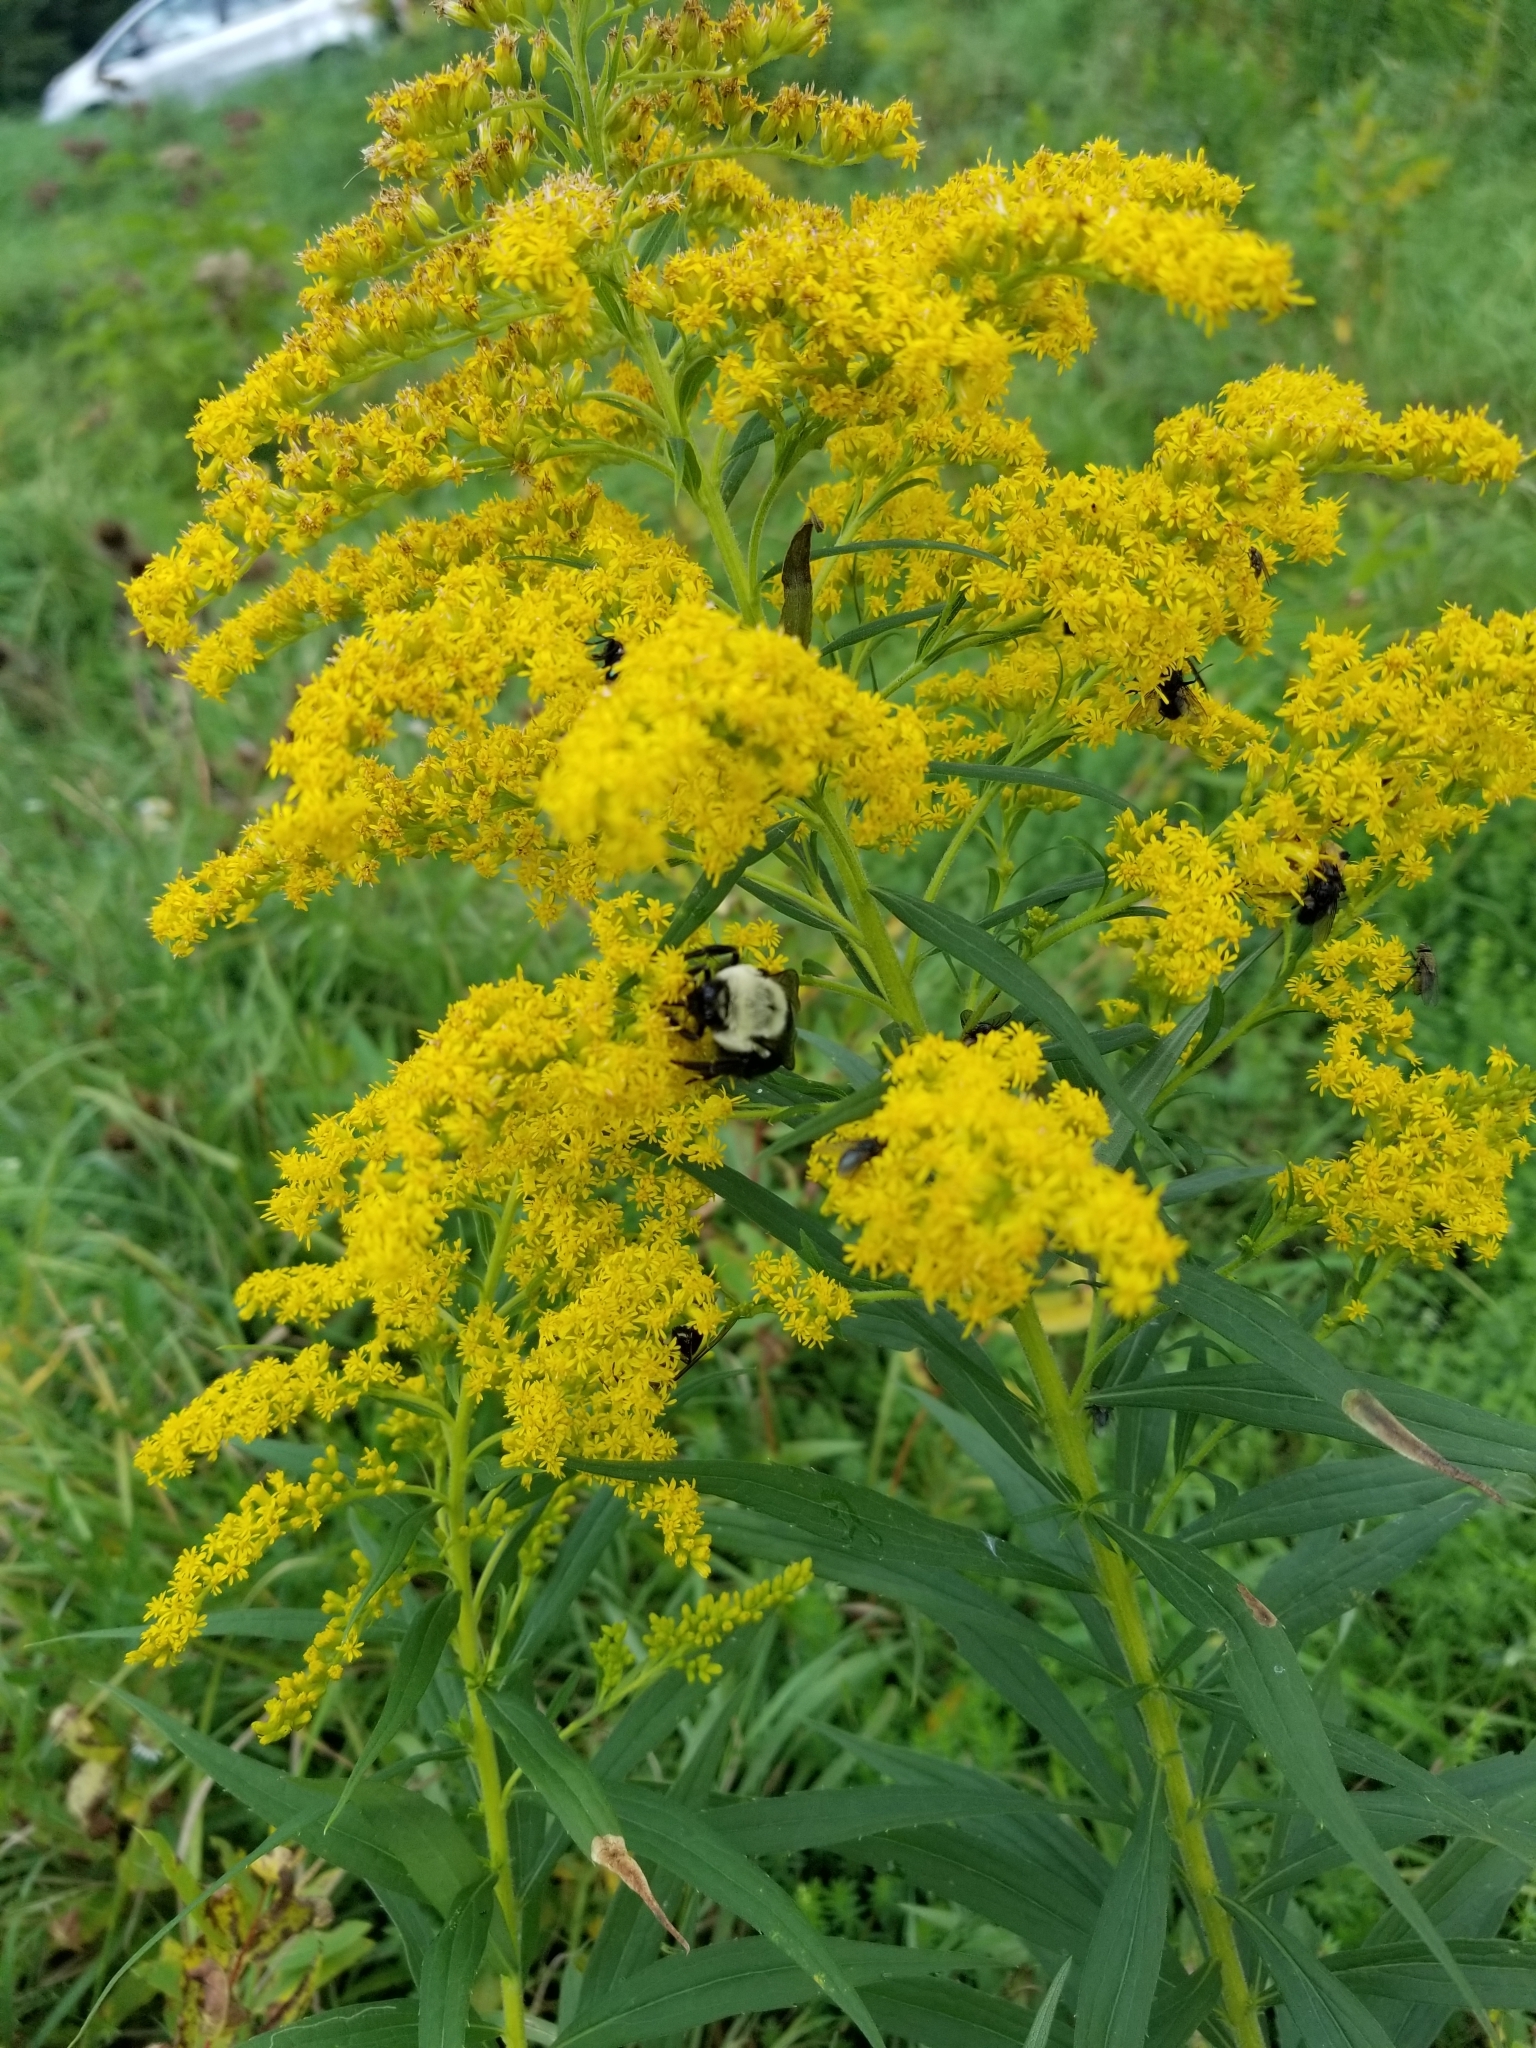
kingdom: Animalia
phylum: Arthropoda
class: Insecta
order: Hymenoptera
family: Apidae
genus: Bombus
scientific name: Bombus impatiens
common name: Common eastern bumble bee
